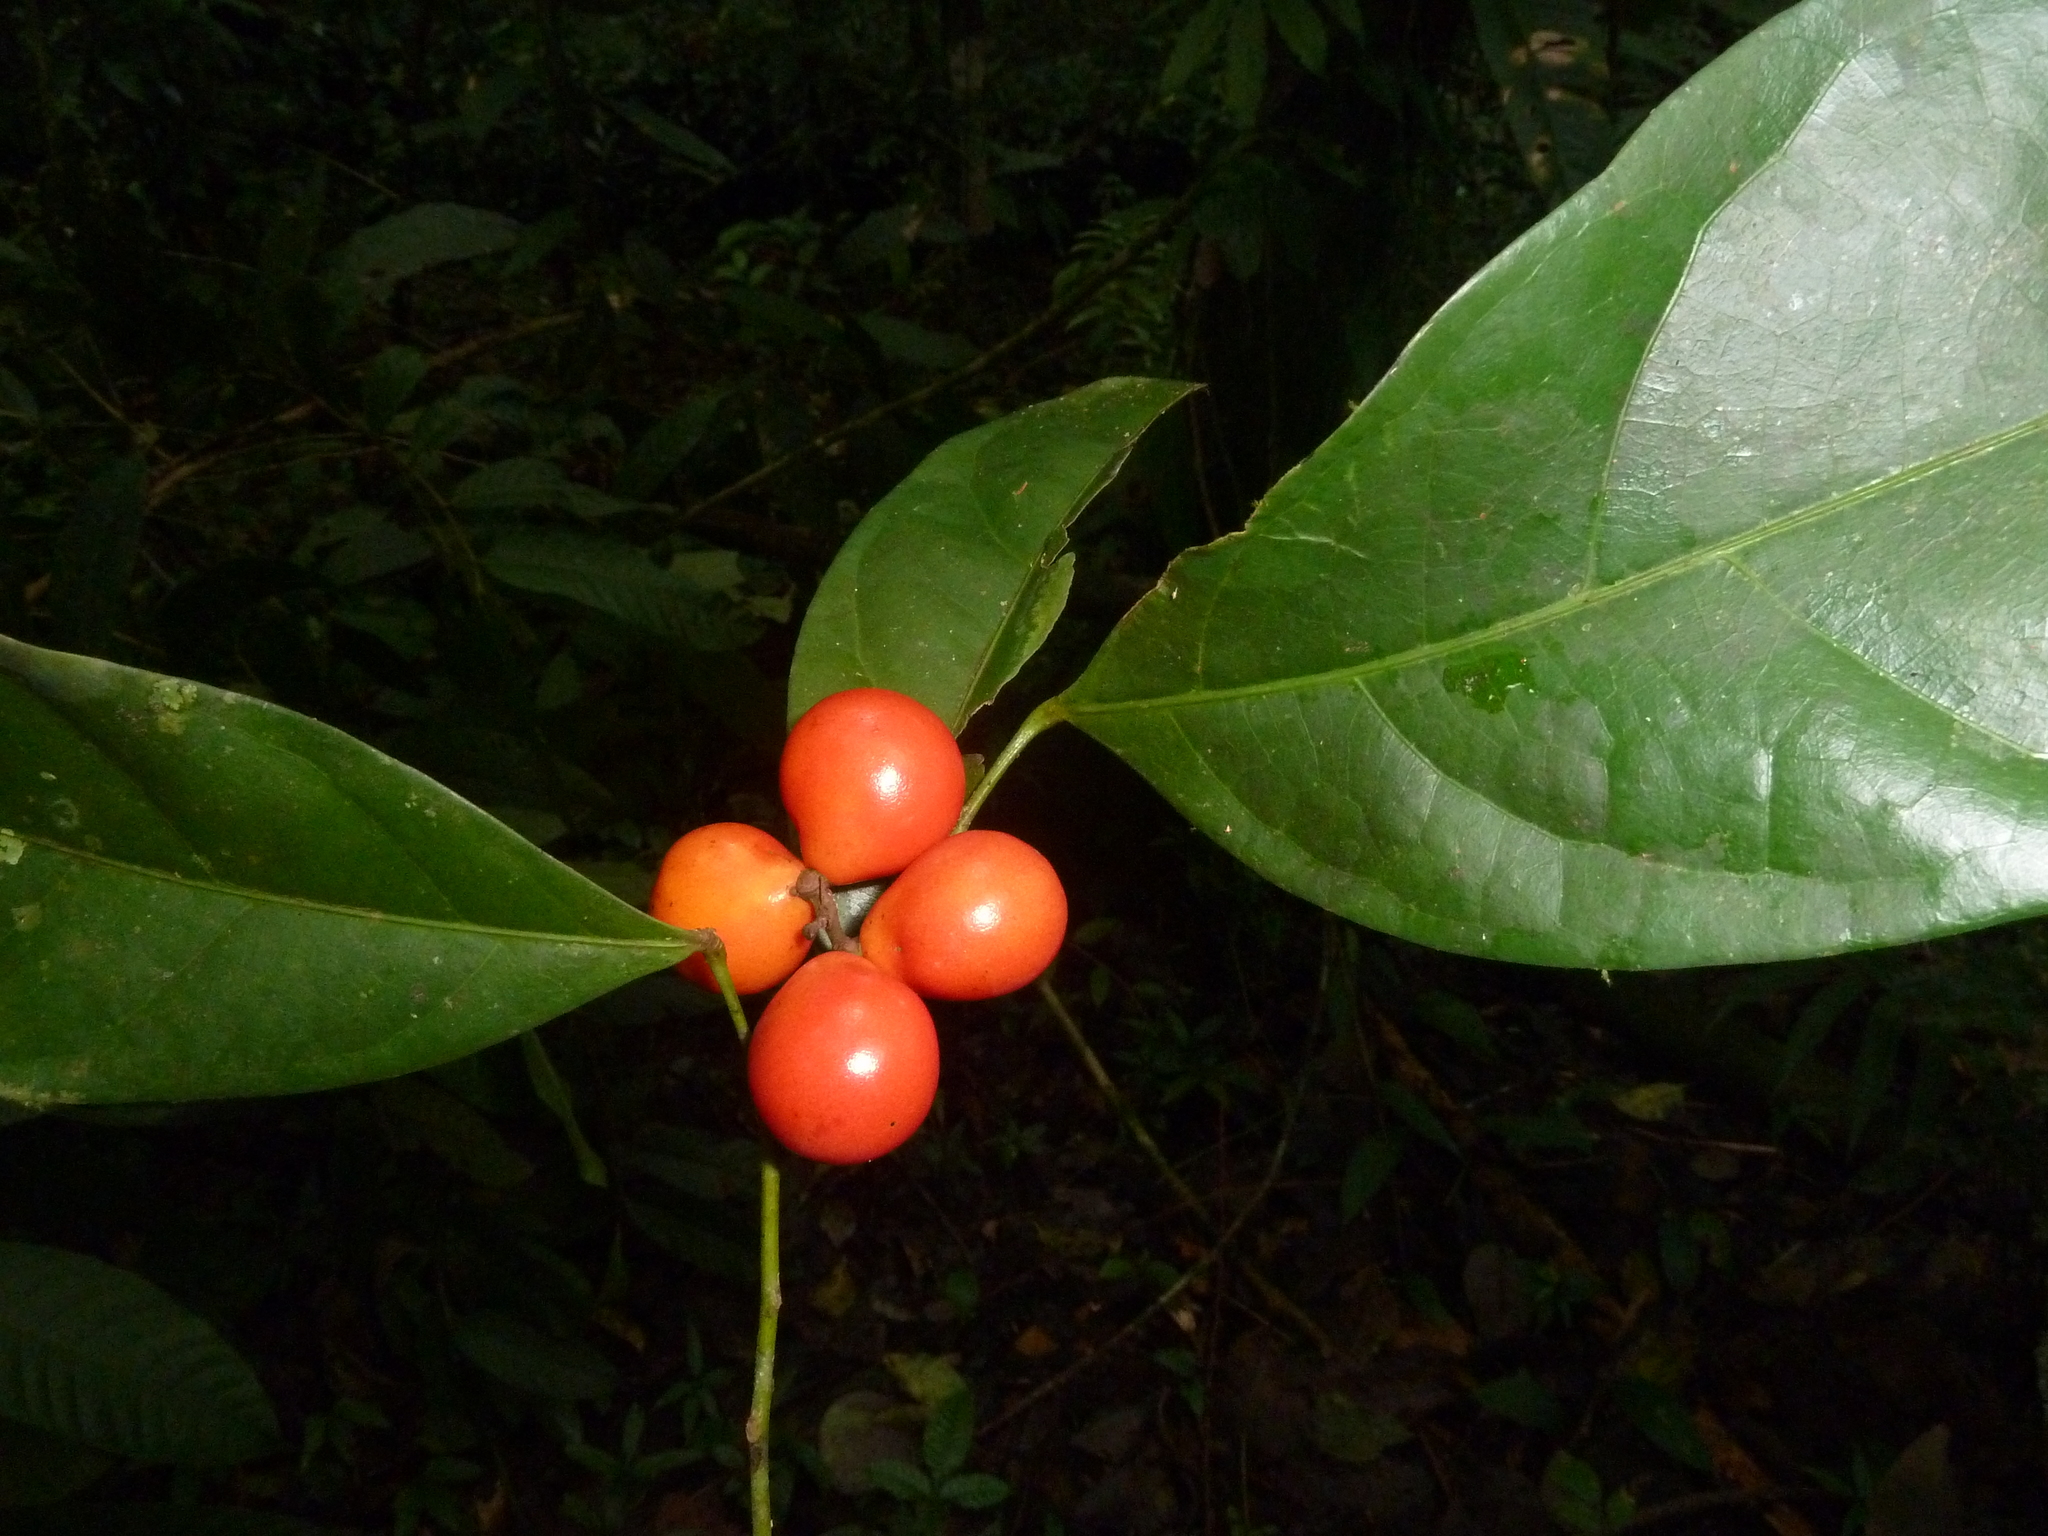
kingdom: Plantae
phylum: Tracheophyta
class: Magnoliopsida
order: Ranunculales
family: Menispermaceae
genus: Hyperbaena
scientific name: Hyperbaena leptobotryosa
